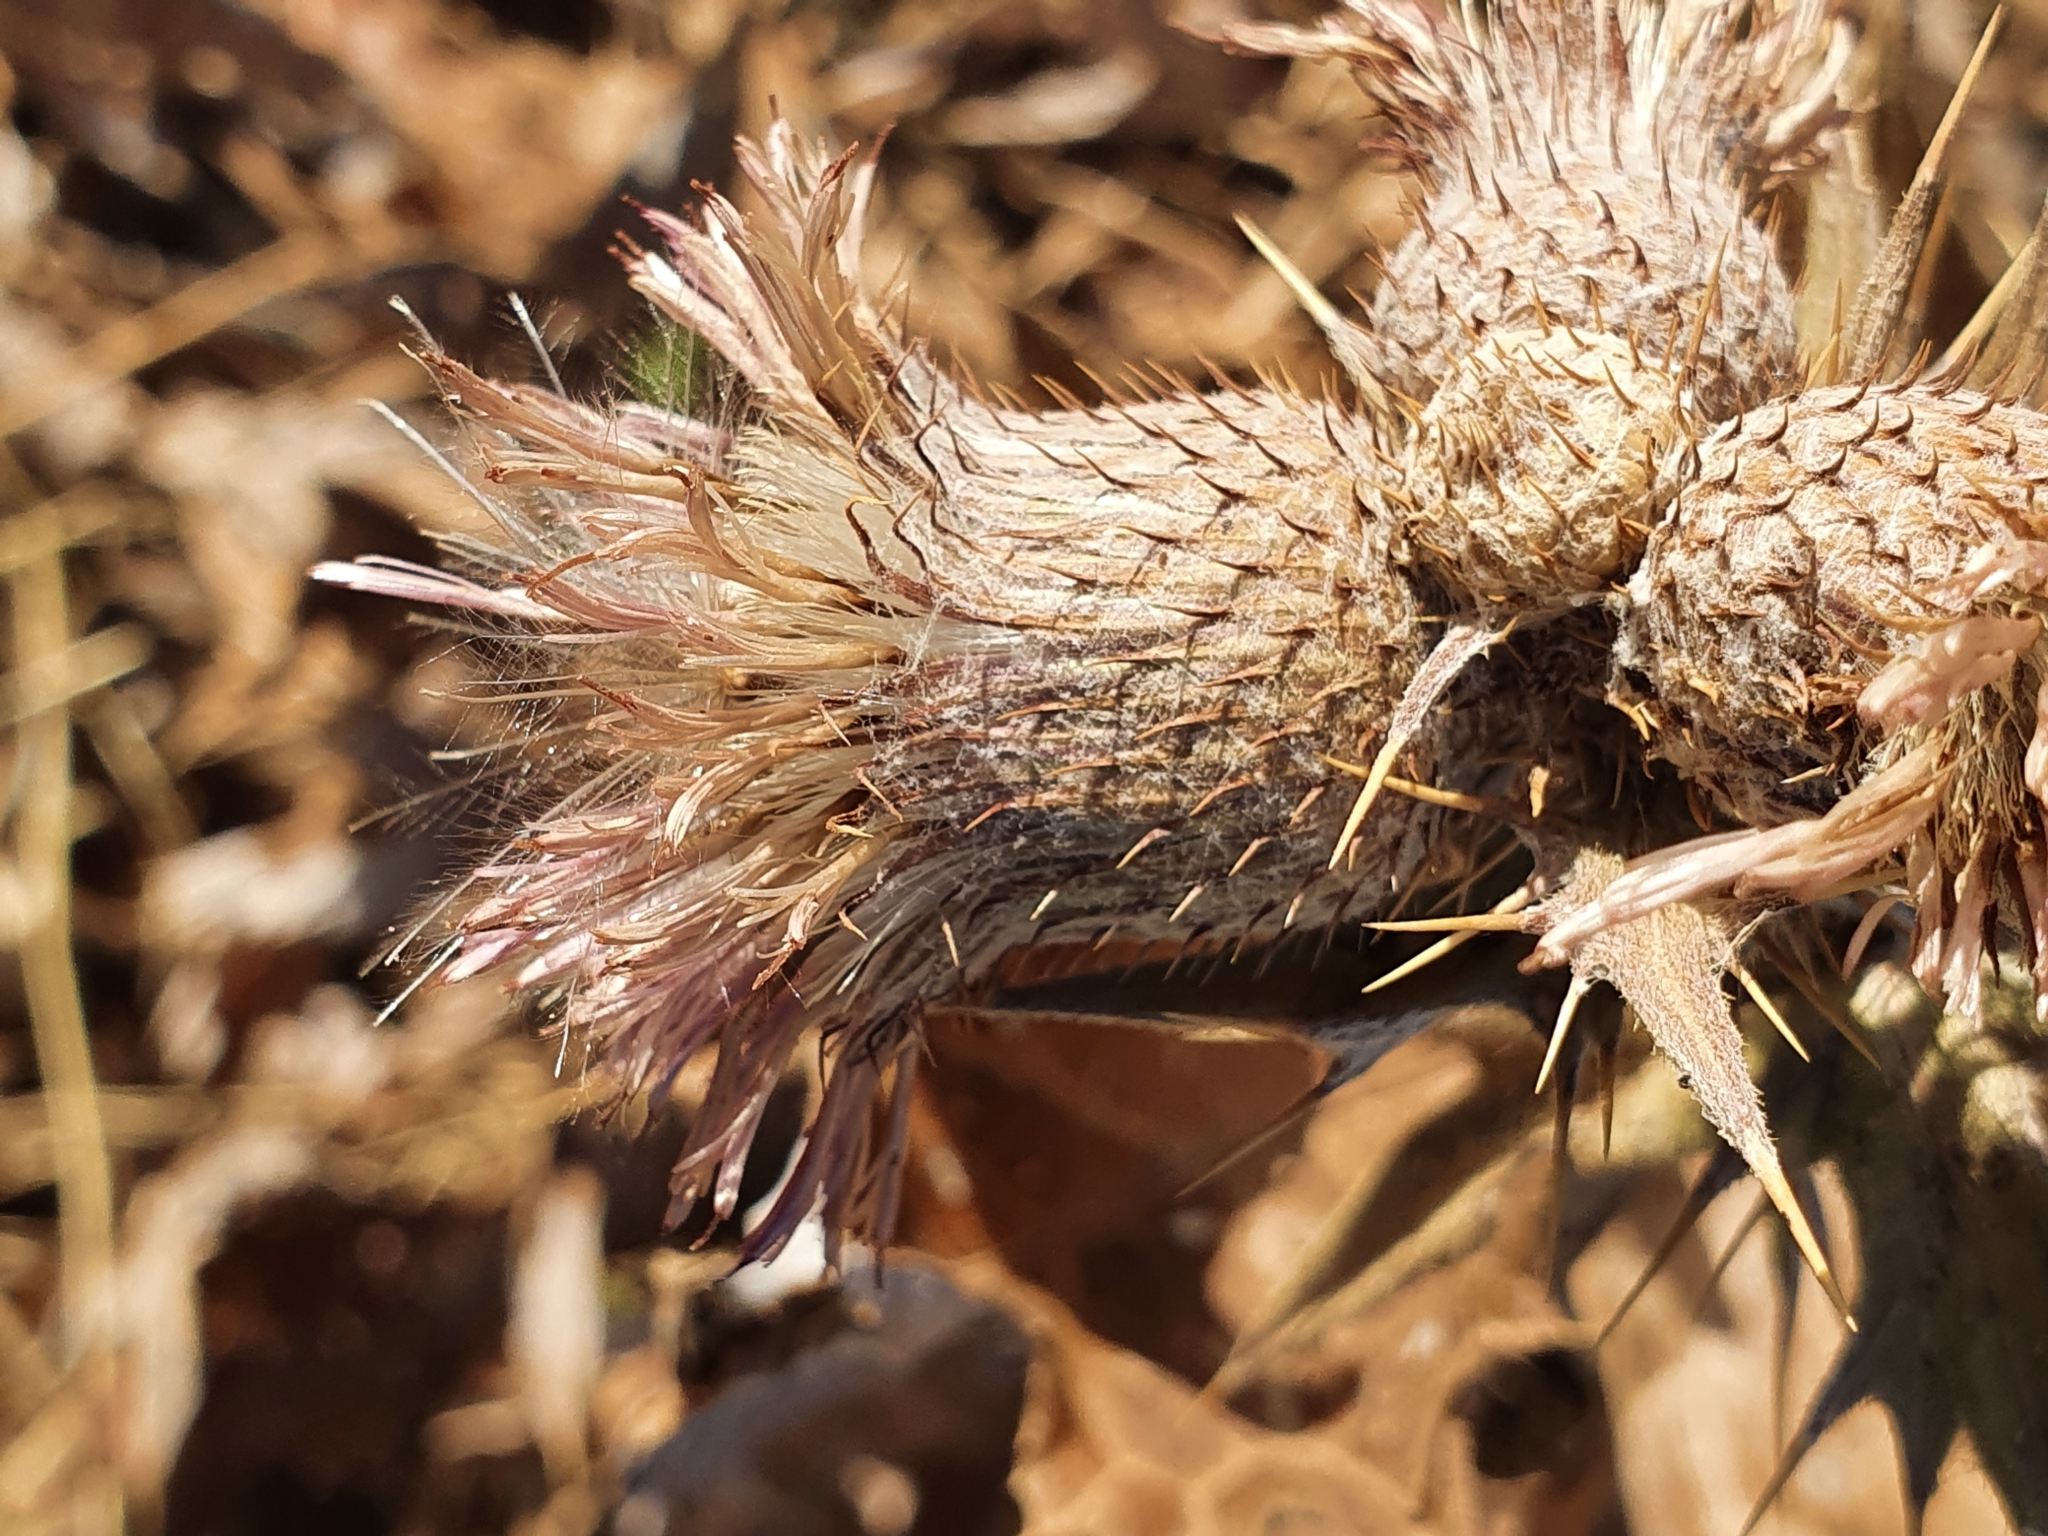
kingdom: Plantae
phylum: Tracheophyta
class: Magnoliopsida
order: Asterales
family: Asteraceae
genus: Lophiolepis
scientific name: Lophiolepis scabra
